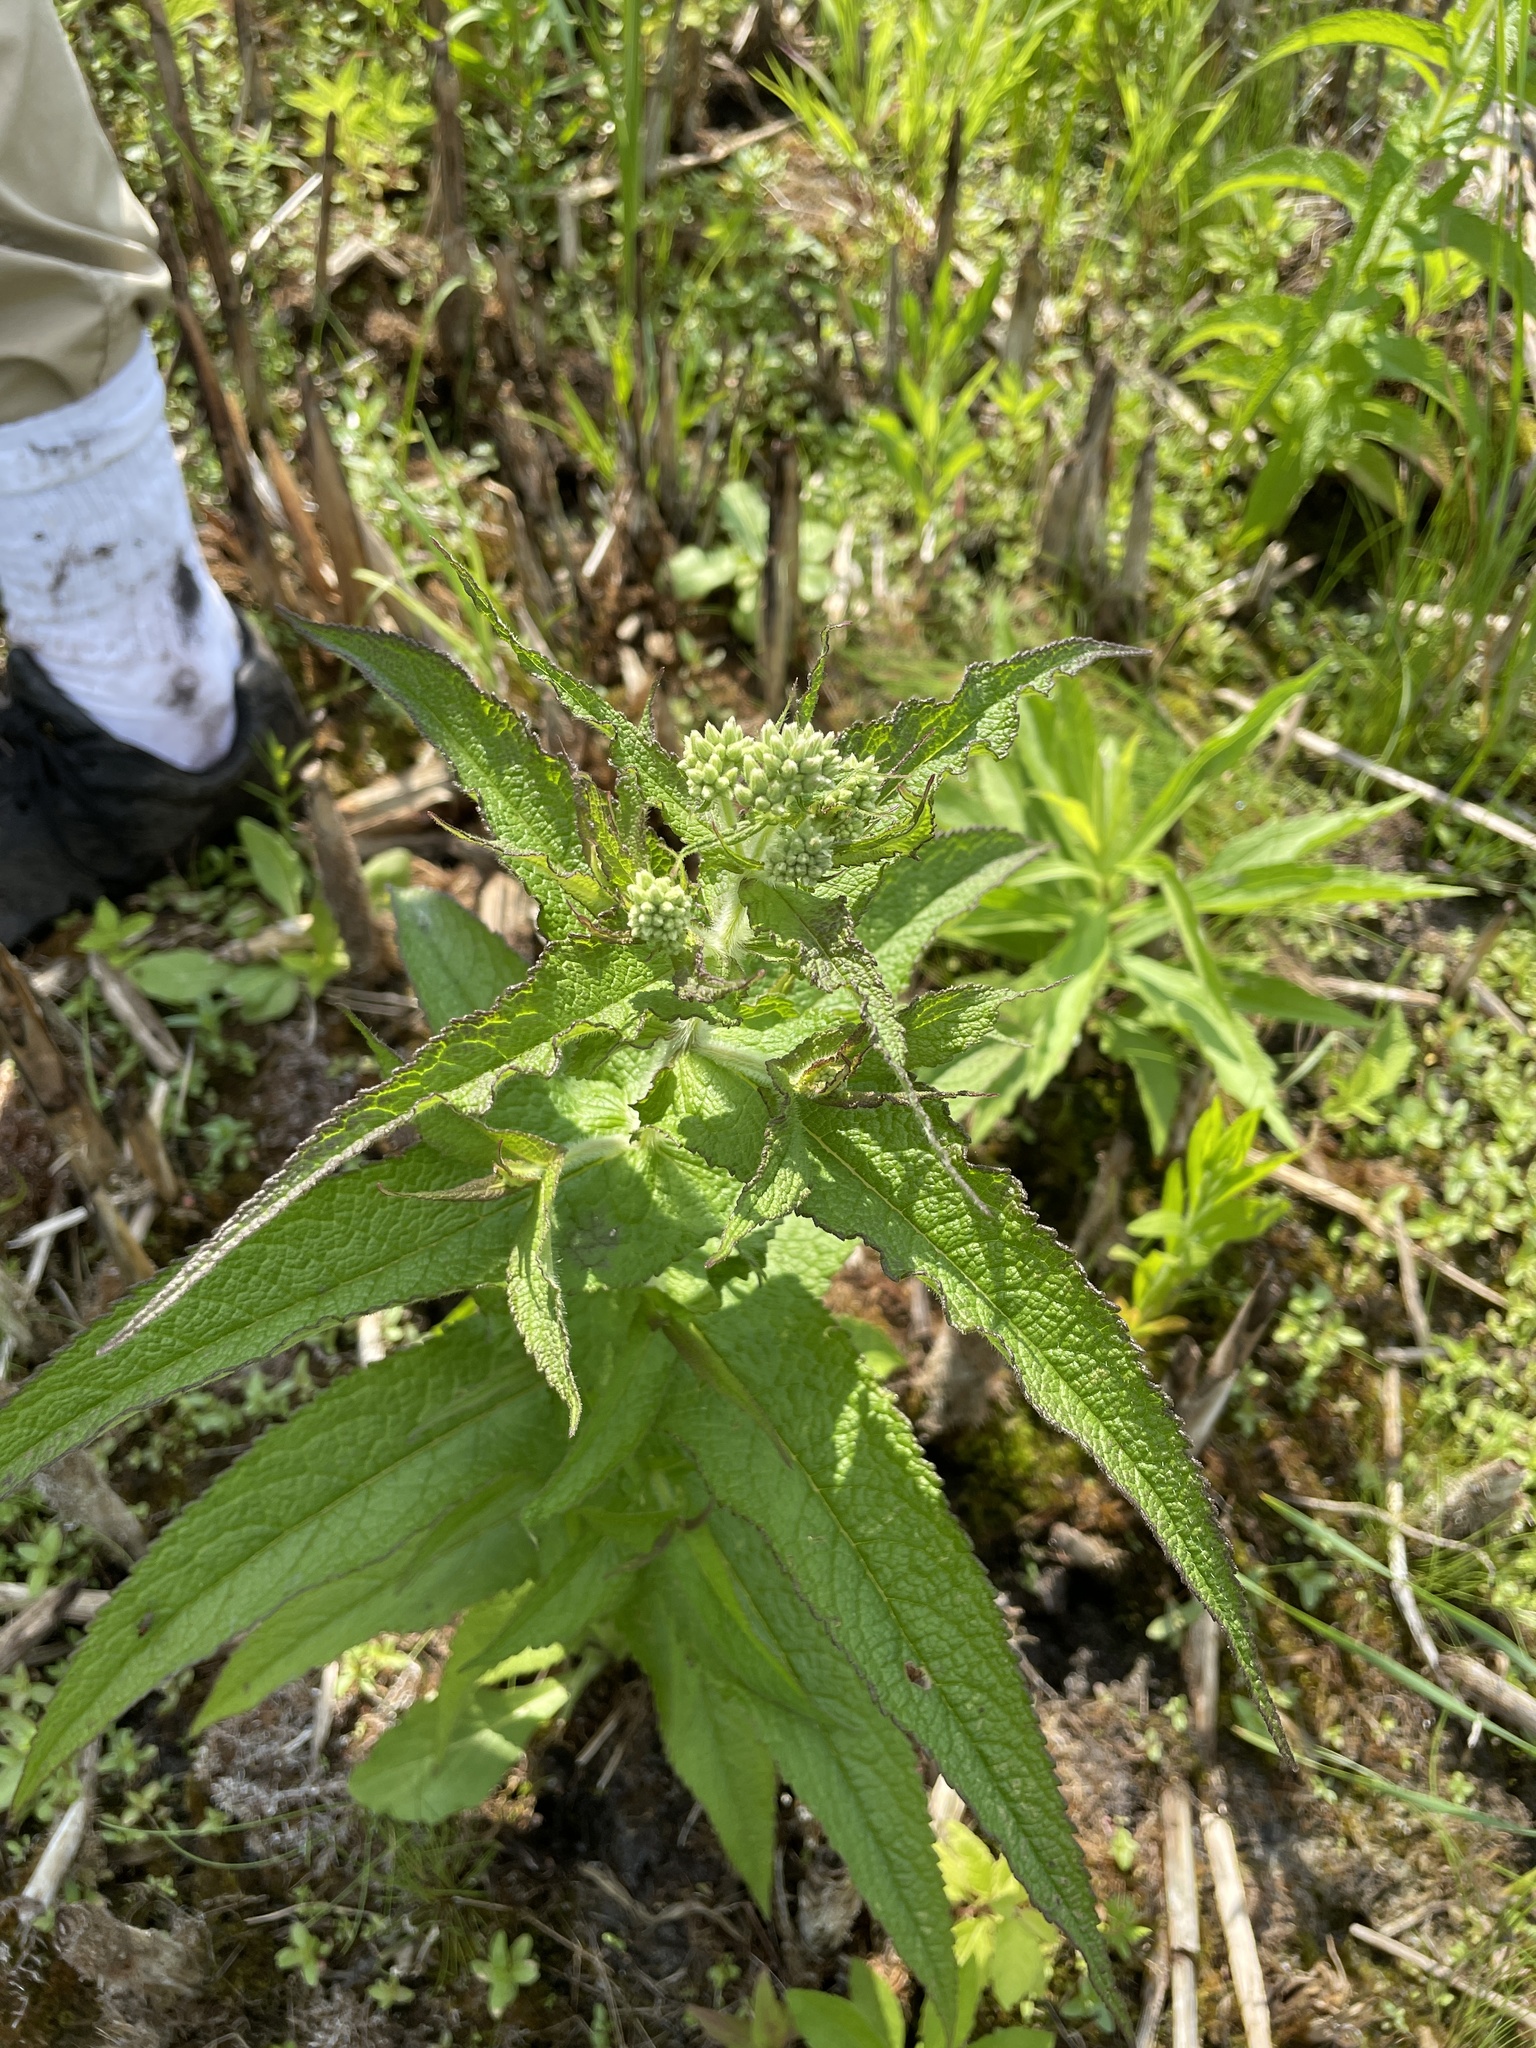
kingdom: Plantae
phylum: Tracheophyta
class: Magnoliopsida
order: Asterales
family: Asteraceae
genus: Eupatorium
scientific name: Eupatorium perfoliatum
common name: Boneset
